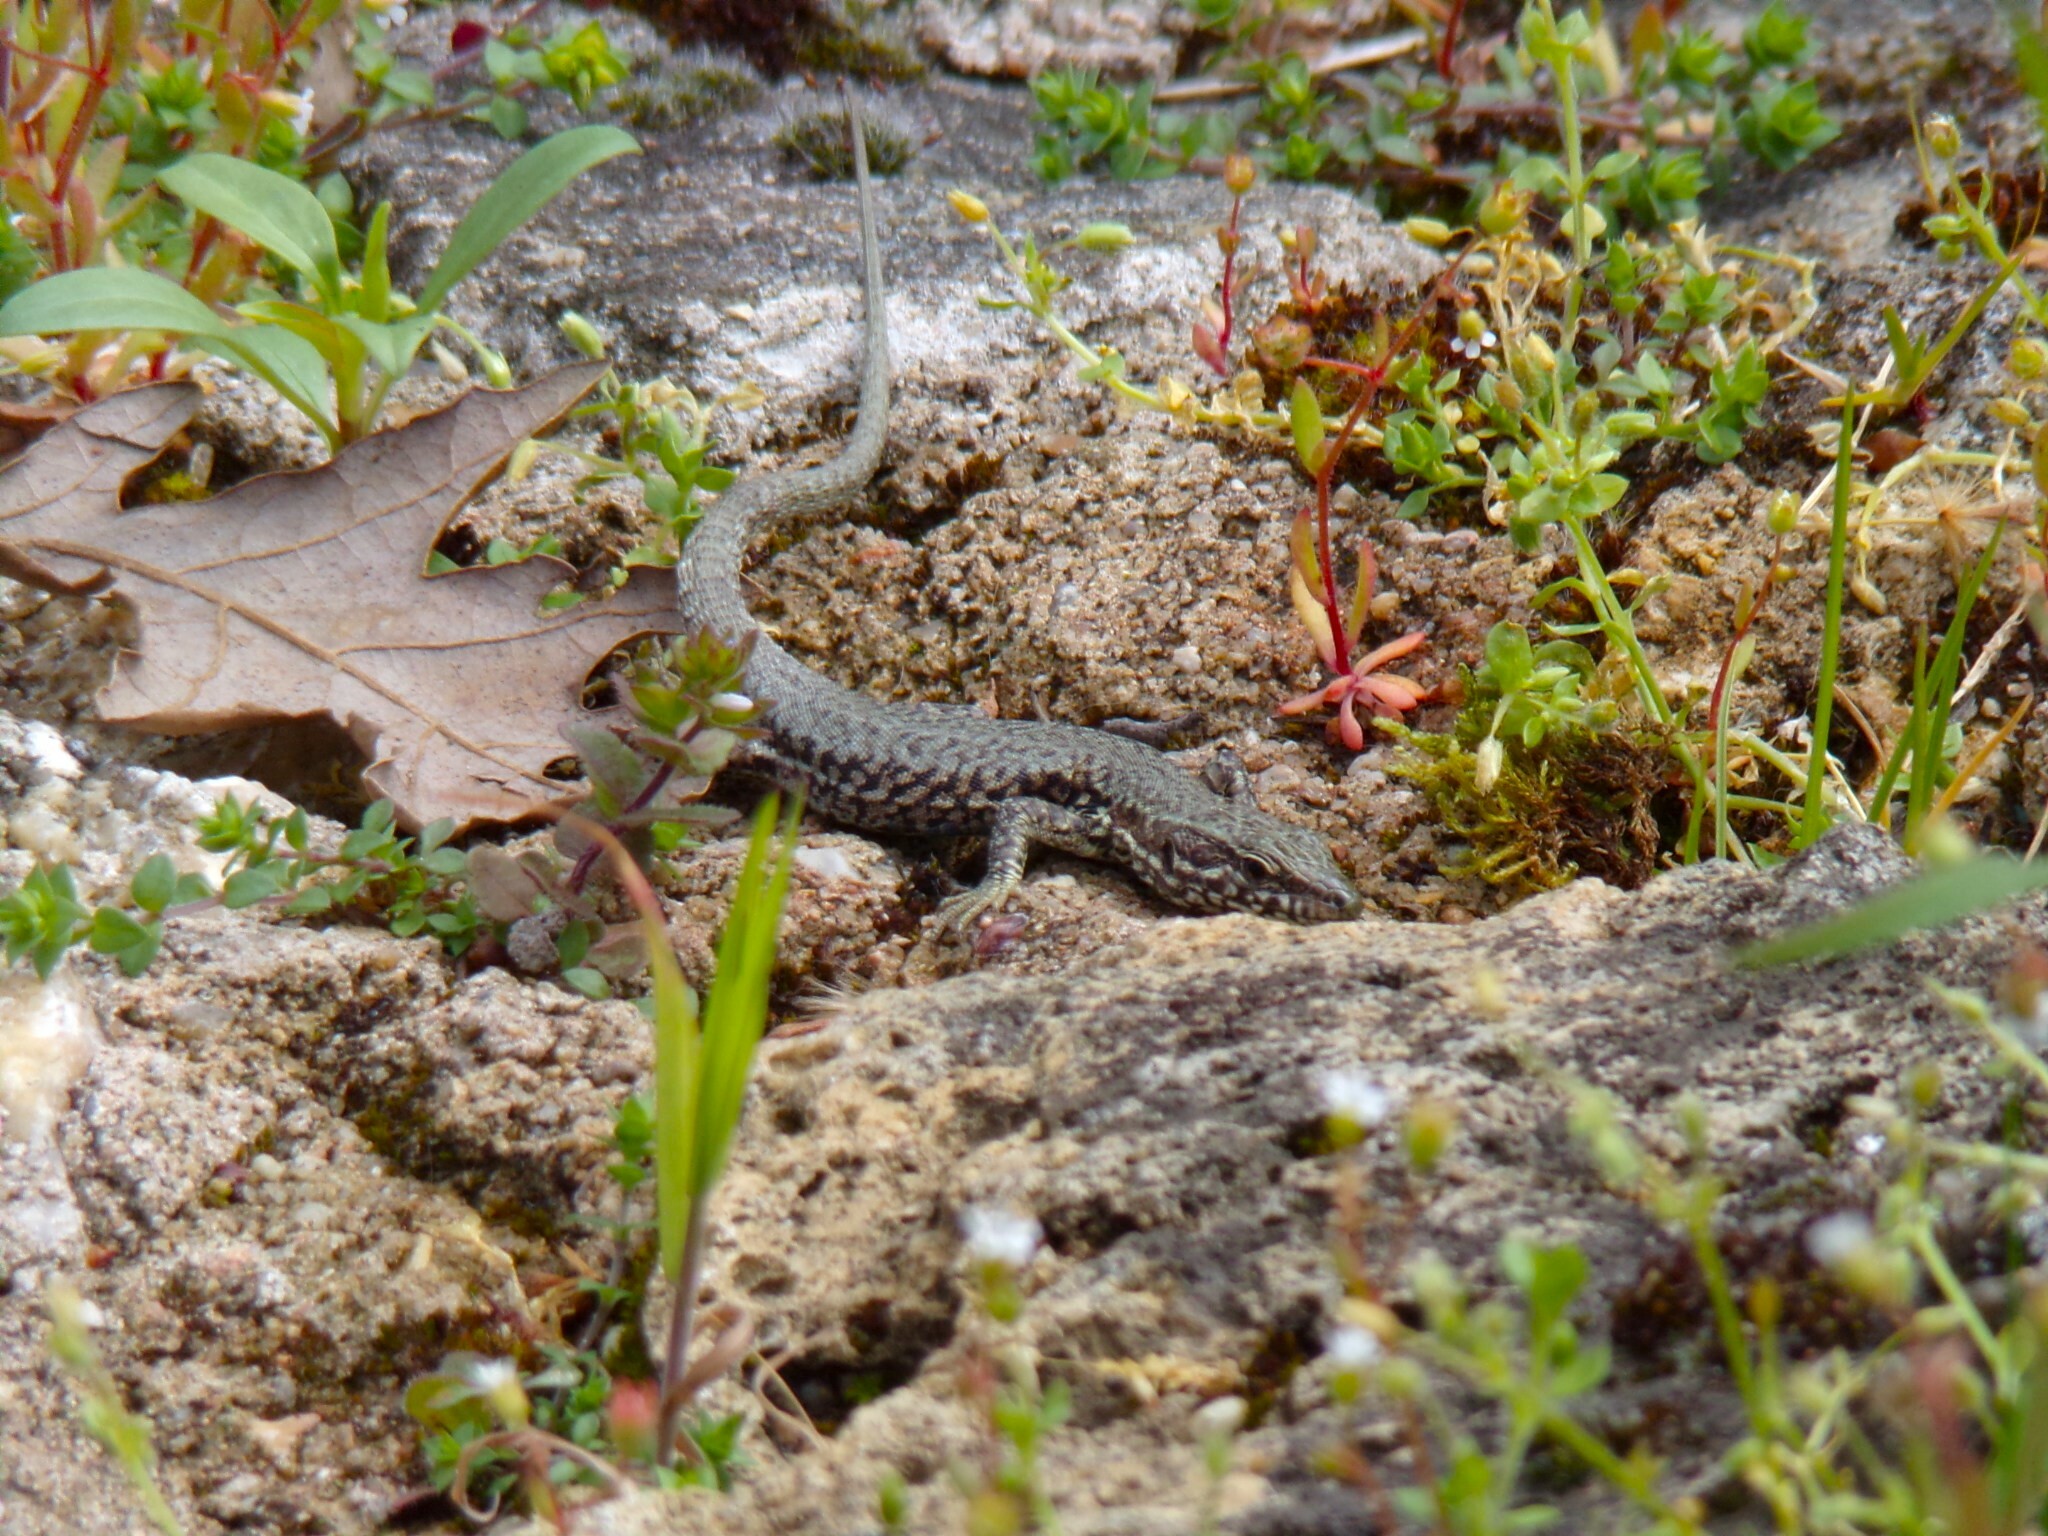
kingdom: Animalia
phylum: Chordata
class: Squamata
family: Lacertidae
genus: Podarcis
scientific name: Podarcis muralis
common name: Common wall lizard
